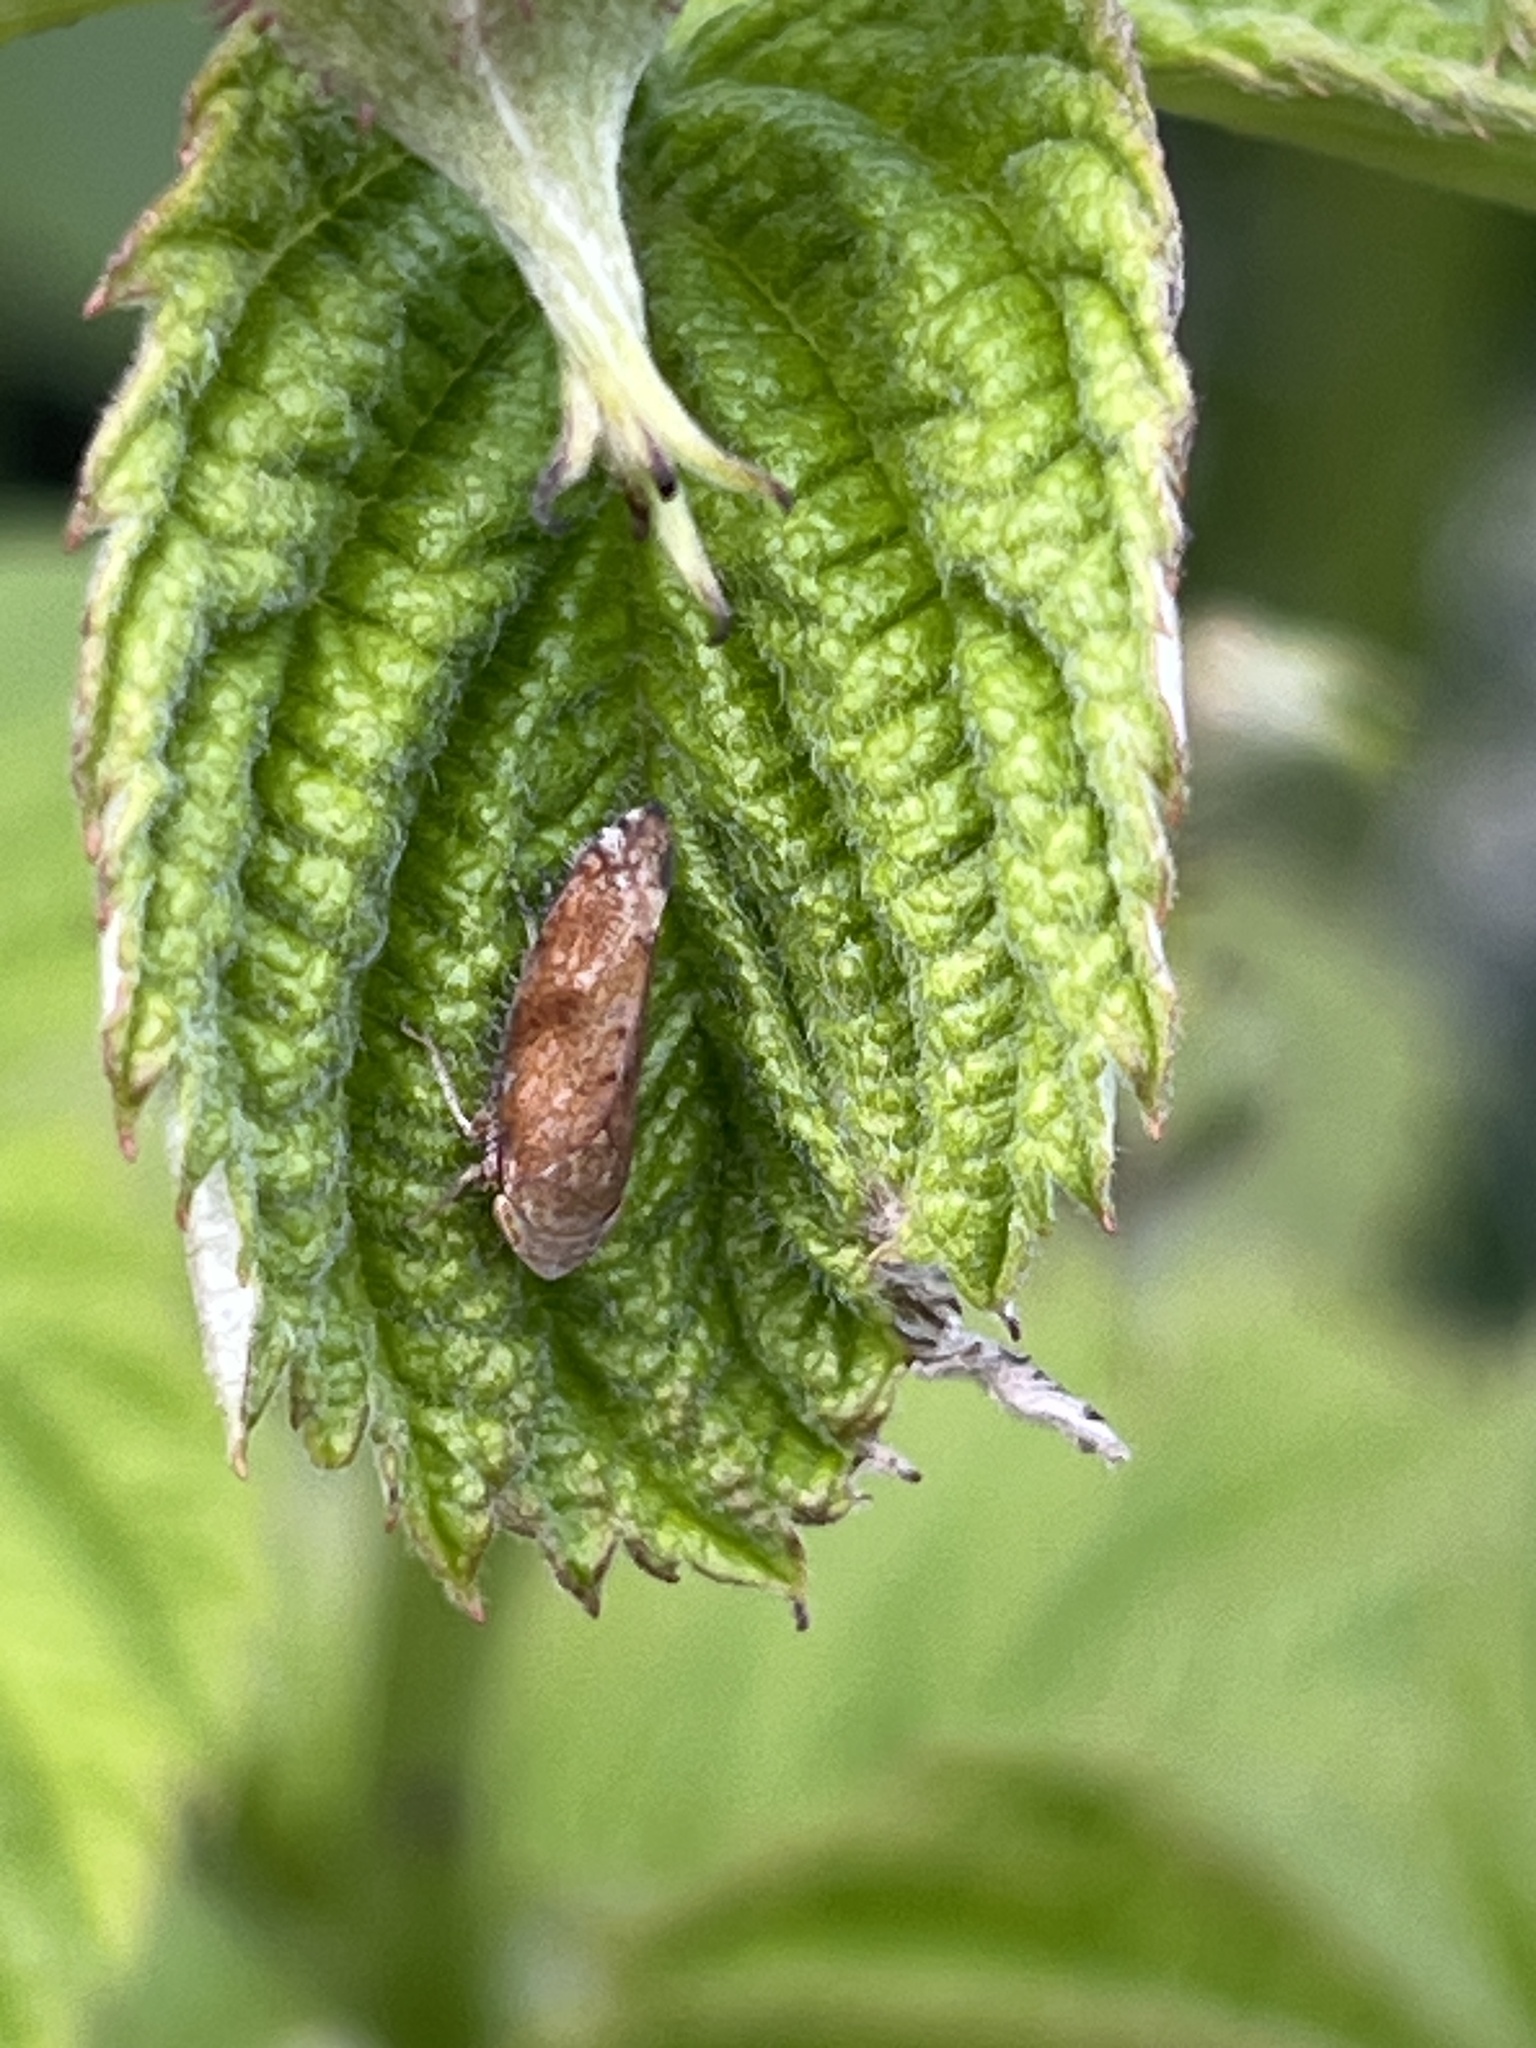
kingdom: Animalia
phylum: Arthropoda
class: Insecta
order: Hemiptera
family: Cicadellidae
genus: Fieberiella
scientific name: Fieberiella
